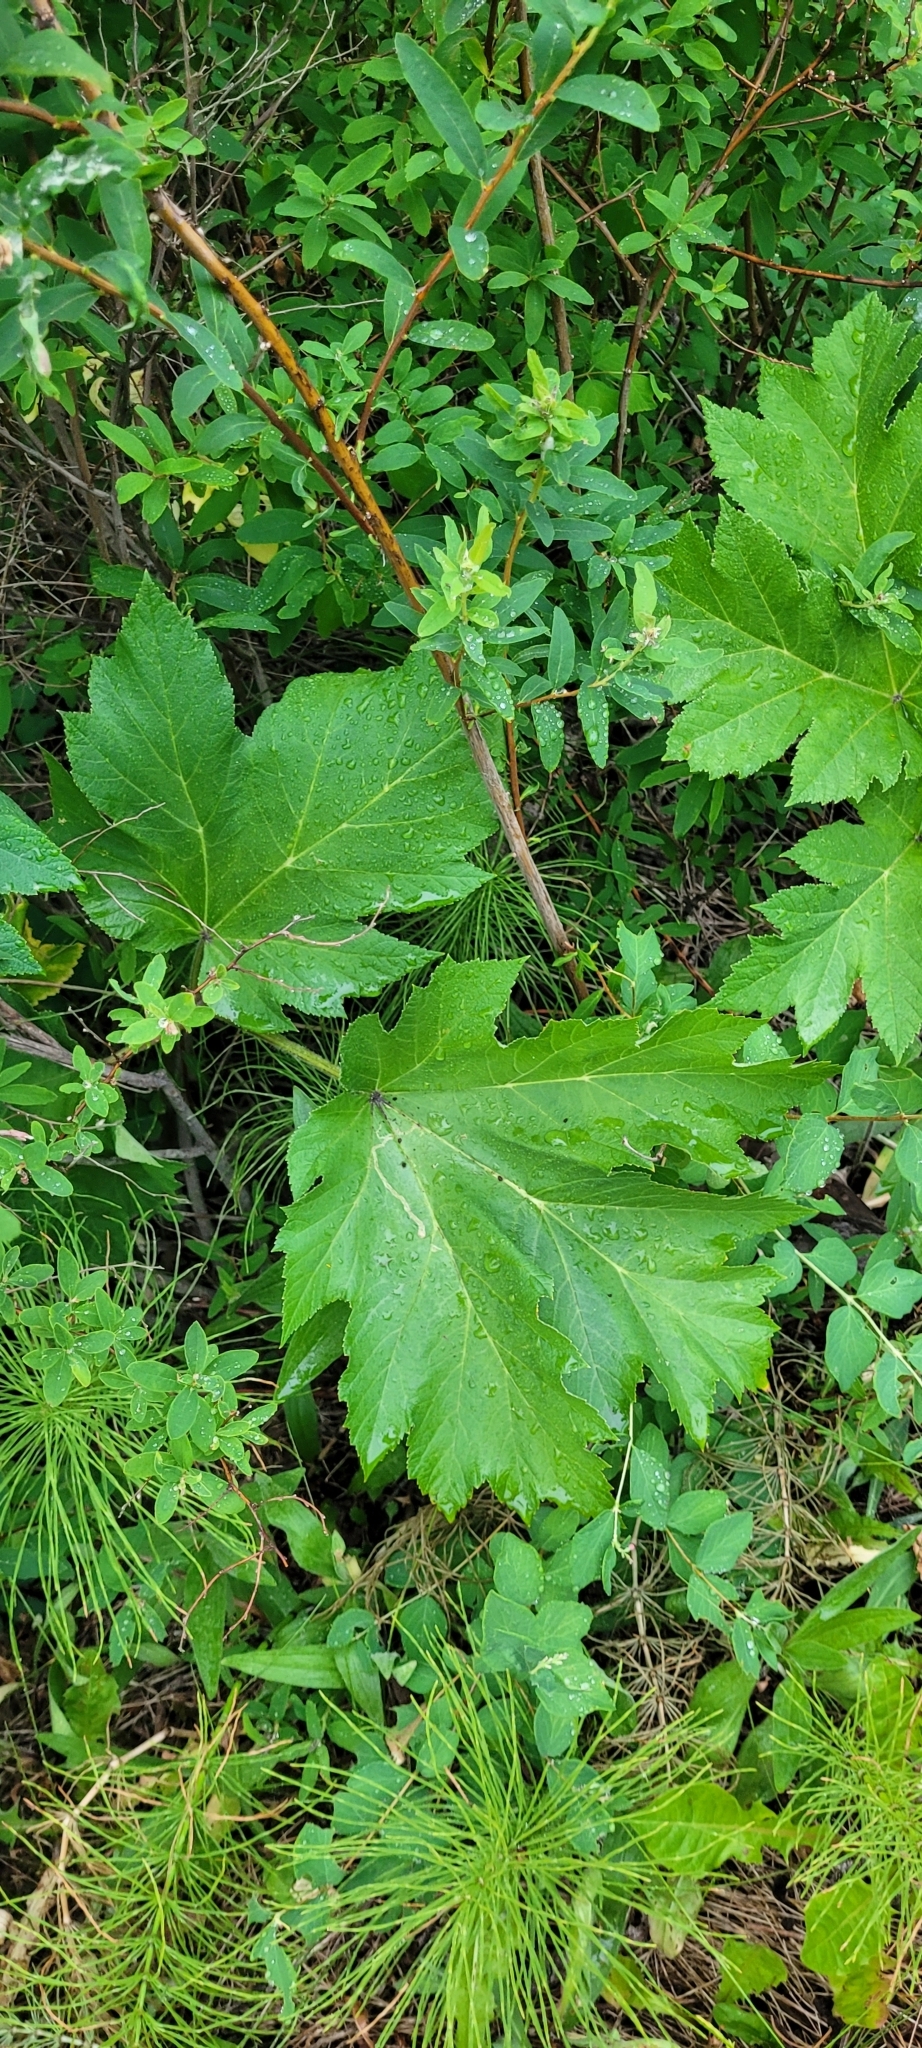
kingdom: Plantae
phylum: Tracheophyta
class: Magnoliopsida
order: Apiales
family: Apiaceae
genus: Heracleum
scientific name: Heracleum maximum
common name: American cow parsnip
